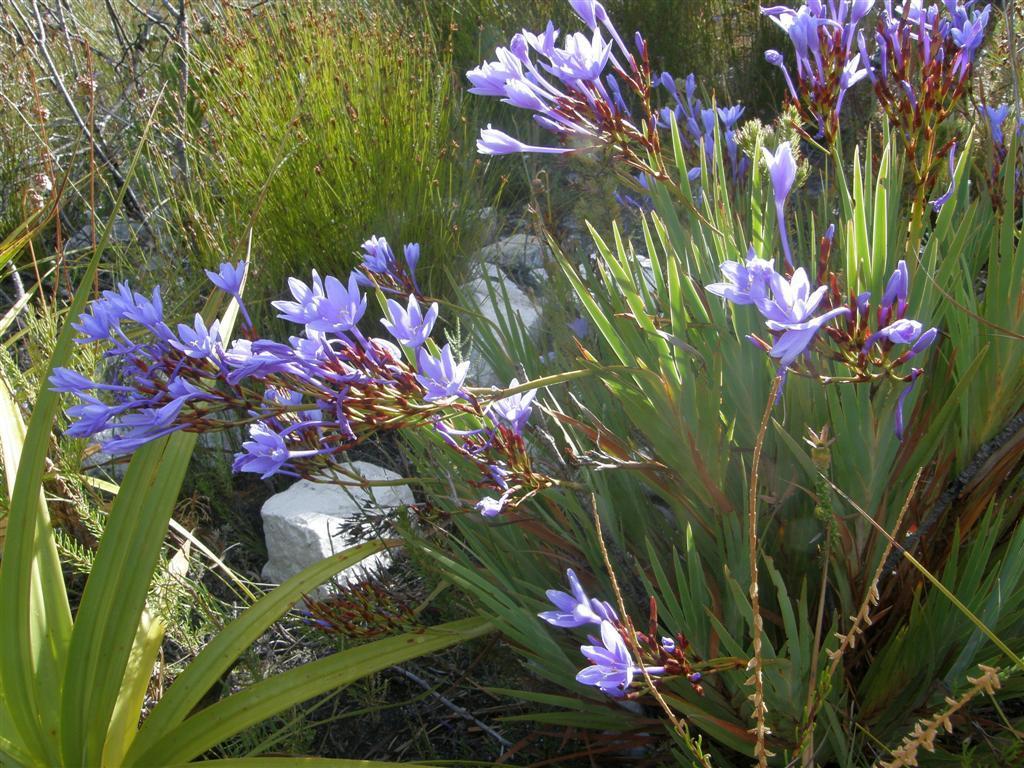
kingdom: Plantae
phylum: Tracheophyta
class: Liliopsida
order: Asparagales
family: Iridaceae
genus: Nivenia
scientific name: Nivenia stokoei
